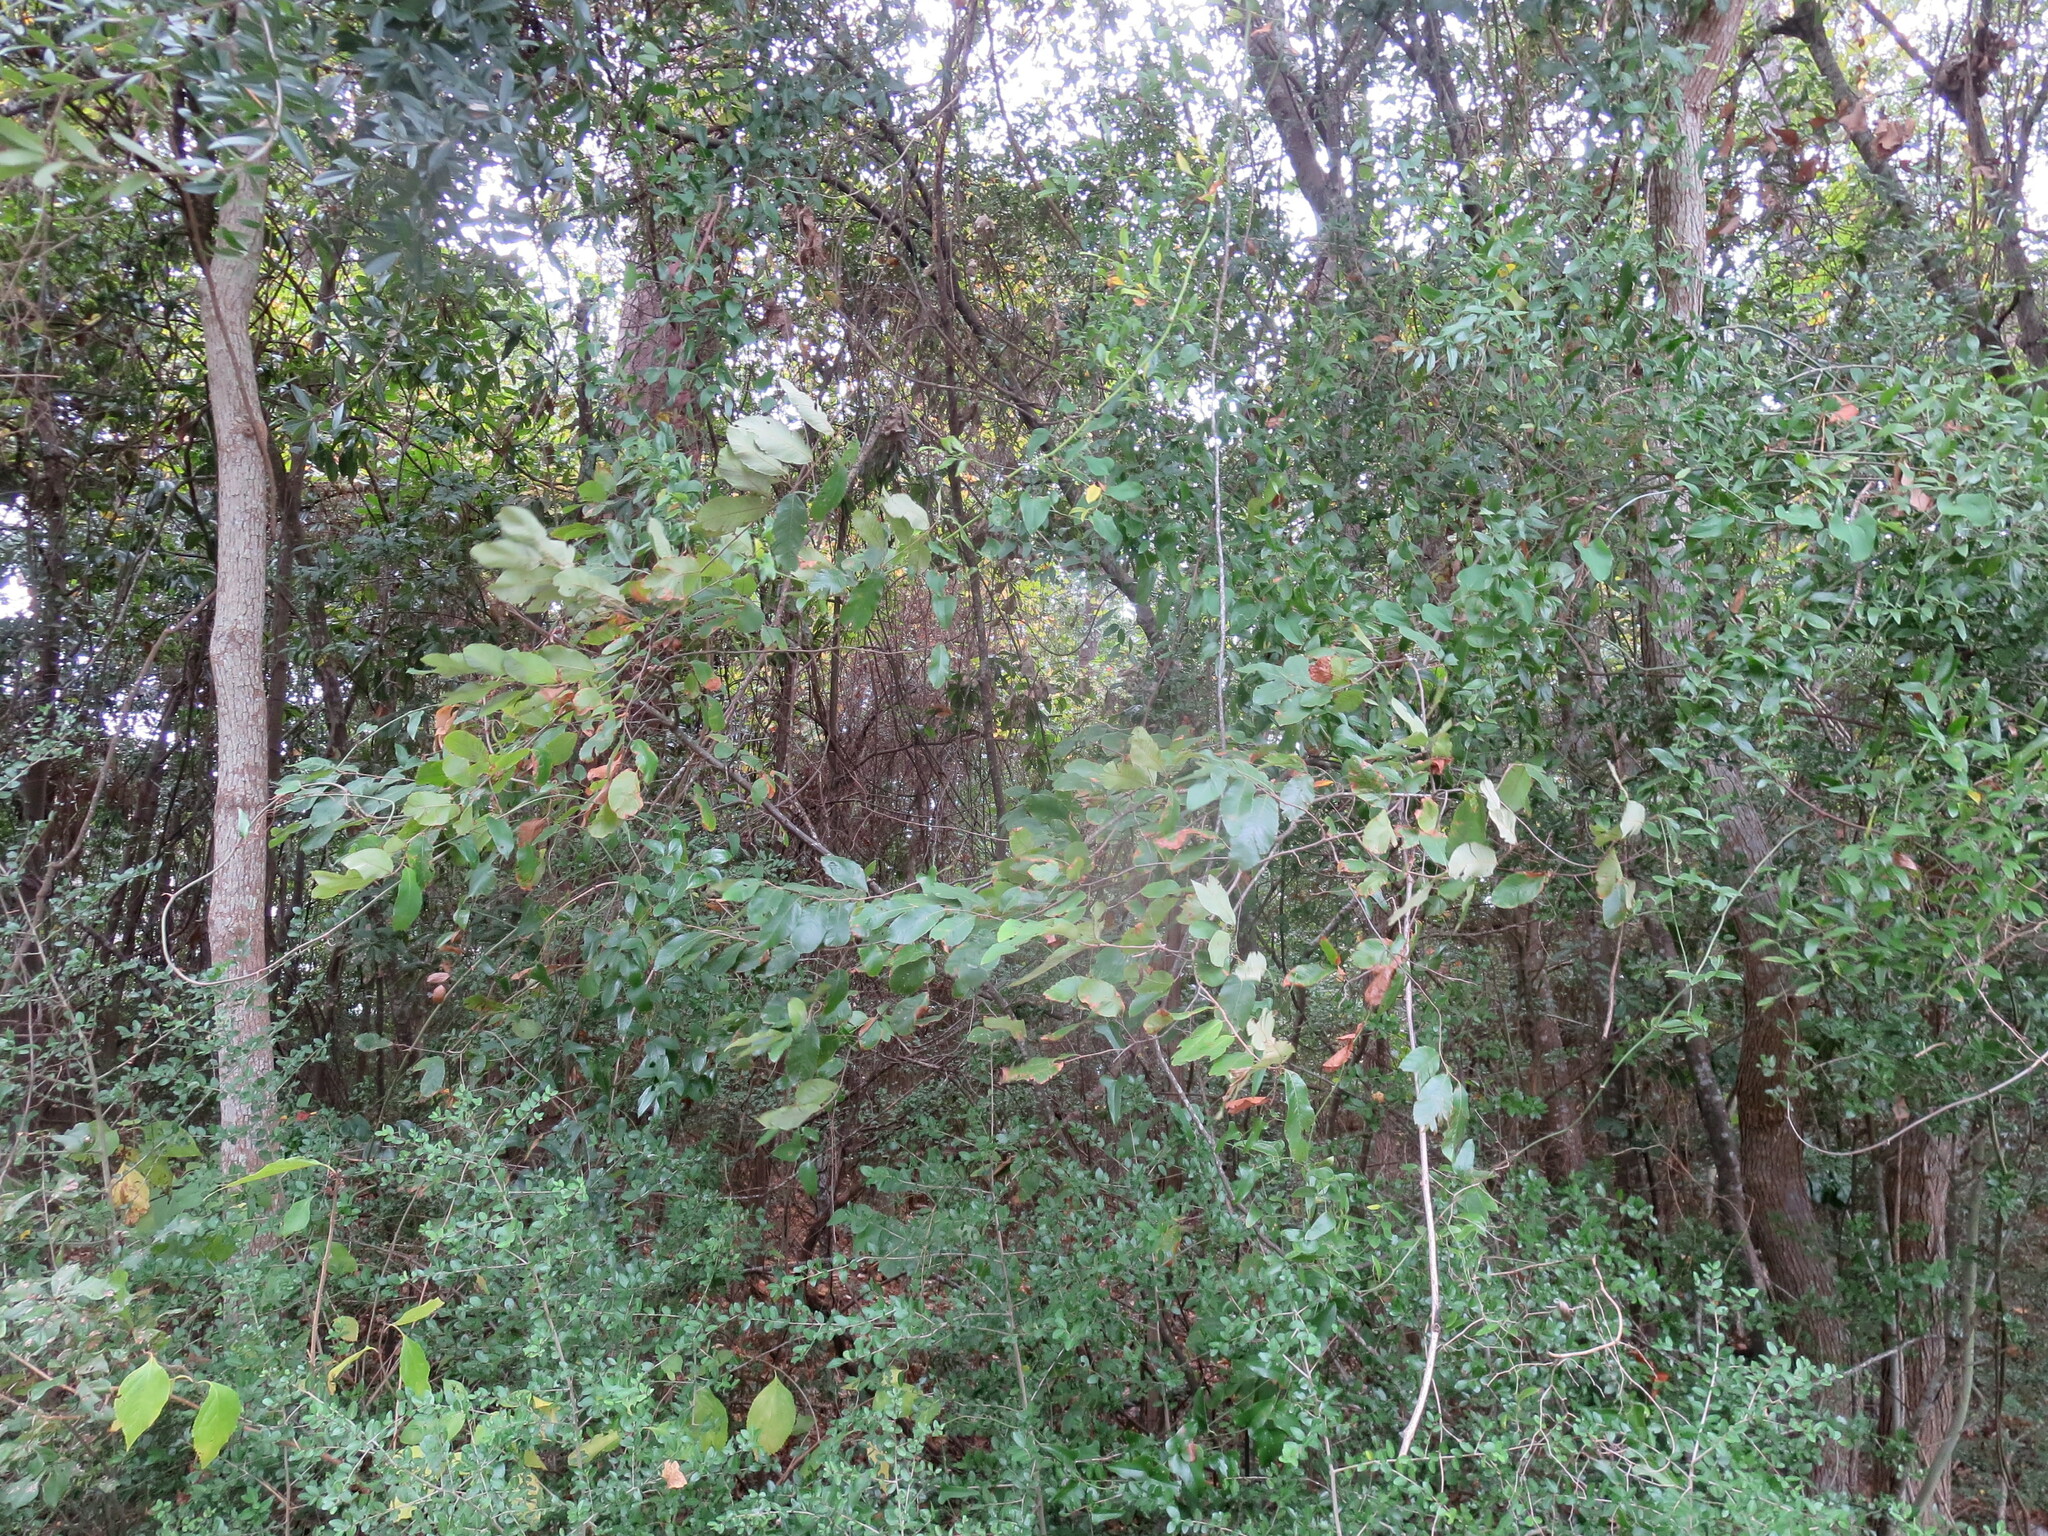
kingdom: Plantae
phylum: Tracheophyta
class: Magnoliopsida
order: Fagales
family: Fagaceae
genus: Castanea
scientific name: Castanea pumila
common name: Chinkapin
